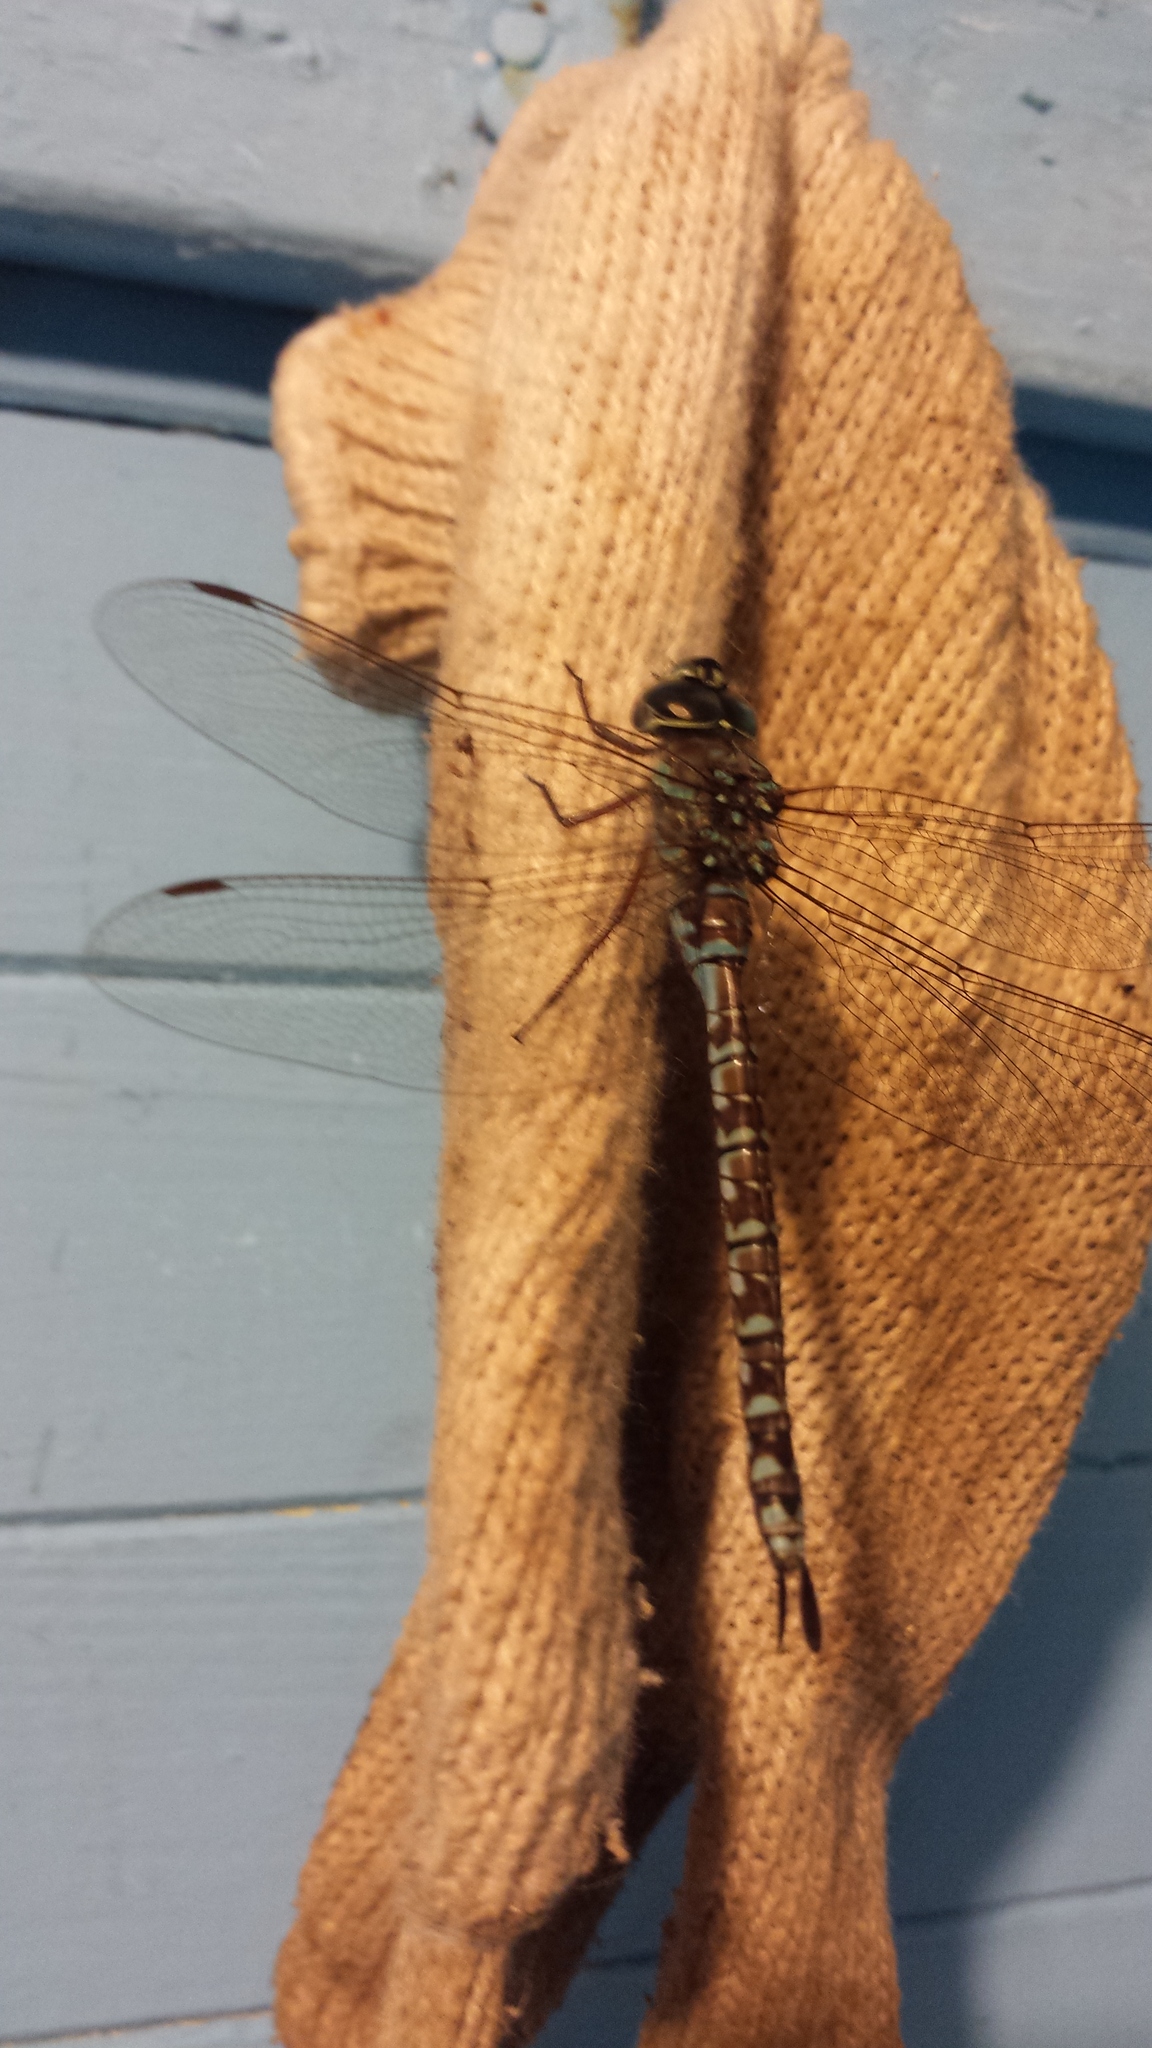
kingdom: Animalia
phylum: Arthropoda
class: Insecta
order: Odonata
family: Aeshnidae
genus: Aeshna
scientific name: Aeshna canadensis
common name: Canada darner
